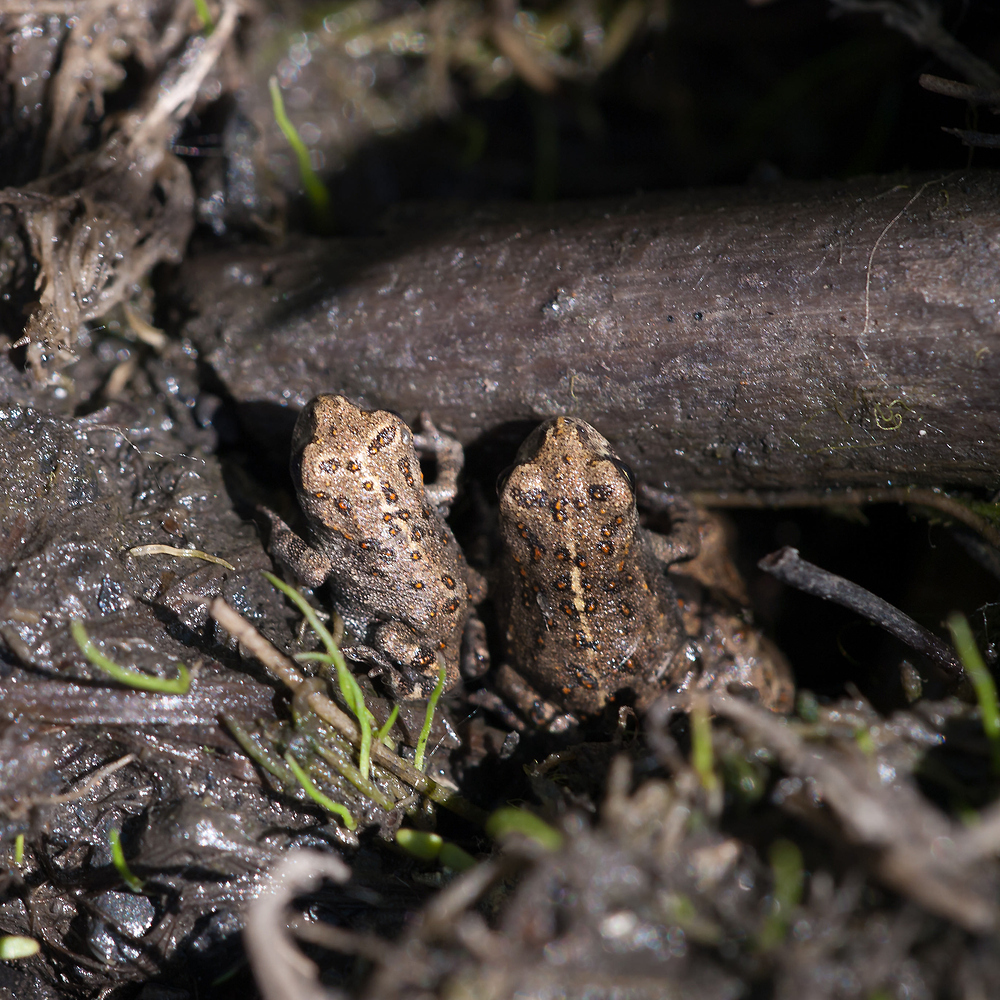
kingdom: Animalia
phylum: Chordata
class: Amphibia
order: Anura
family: Bufonidae
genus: Epidalea
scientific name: Epidalea calamita
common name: Natterjack toad
